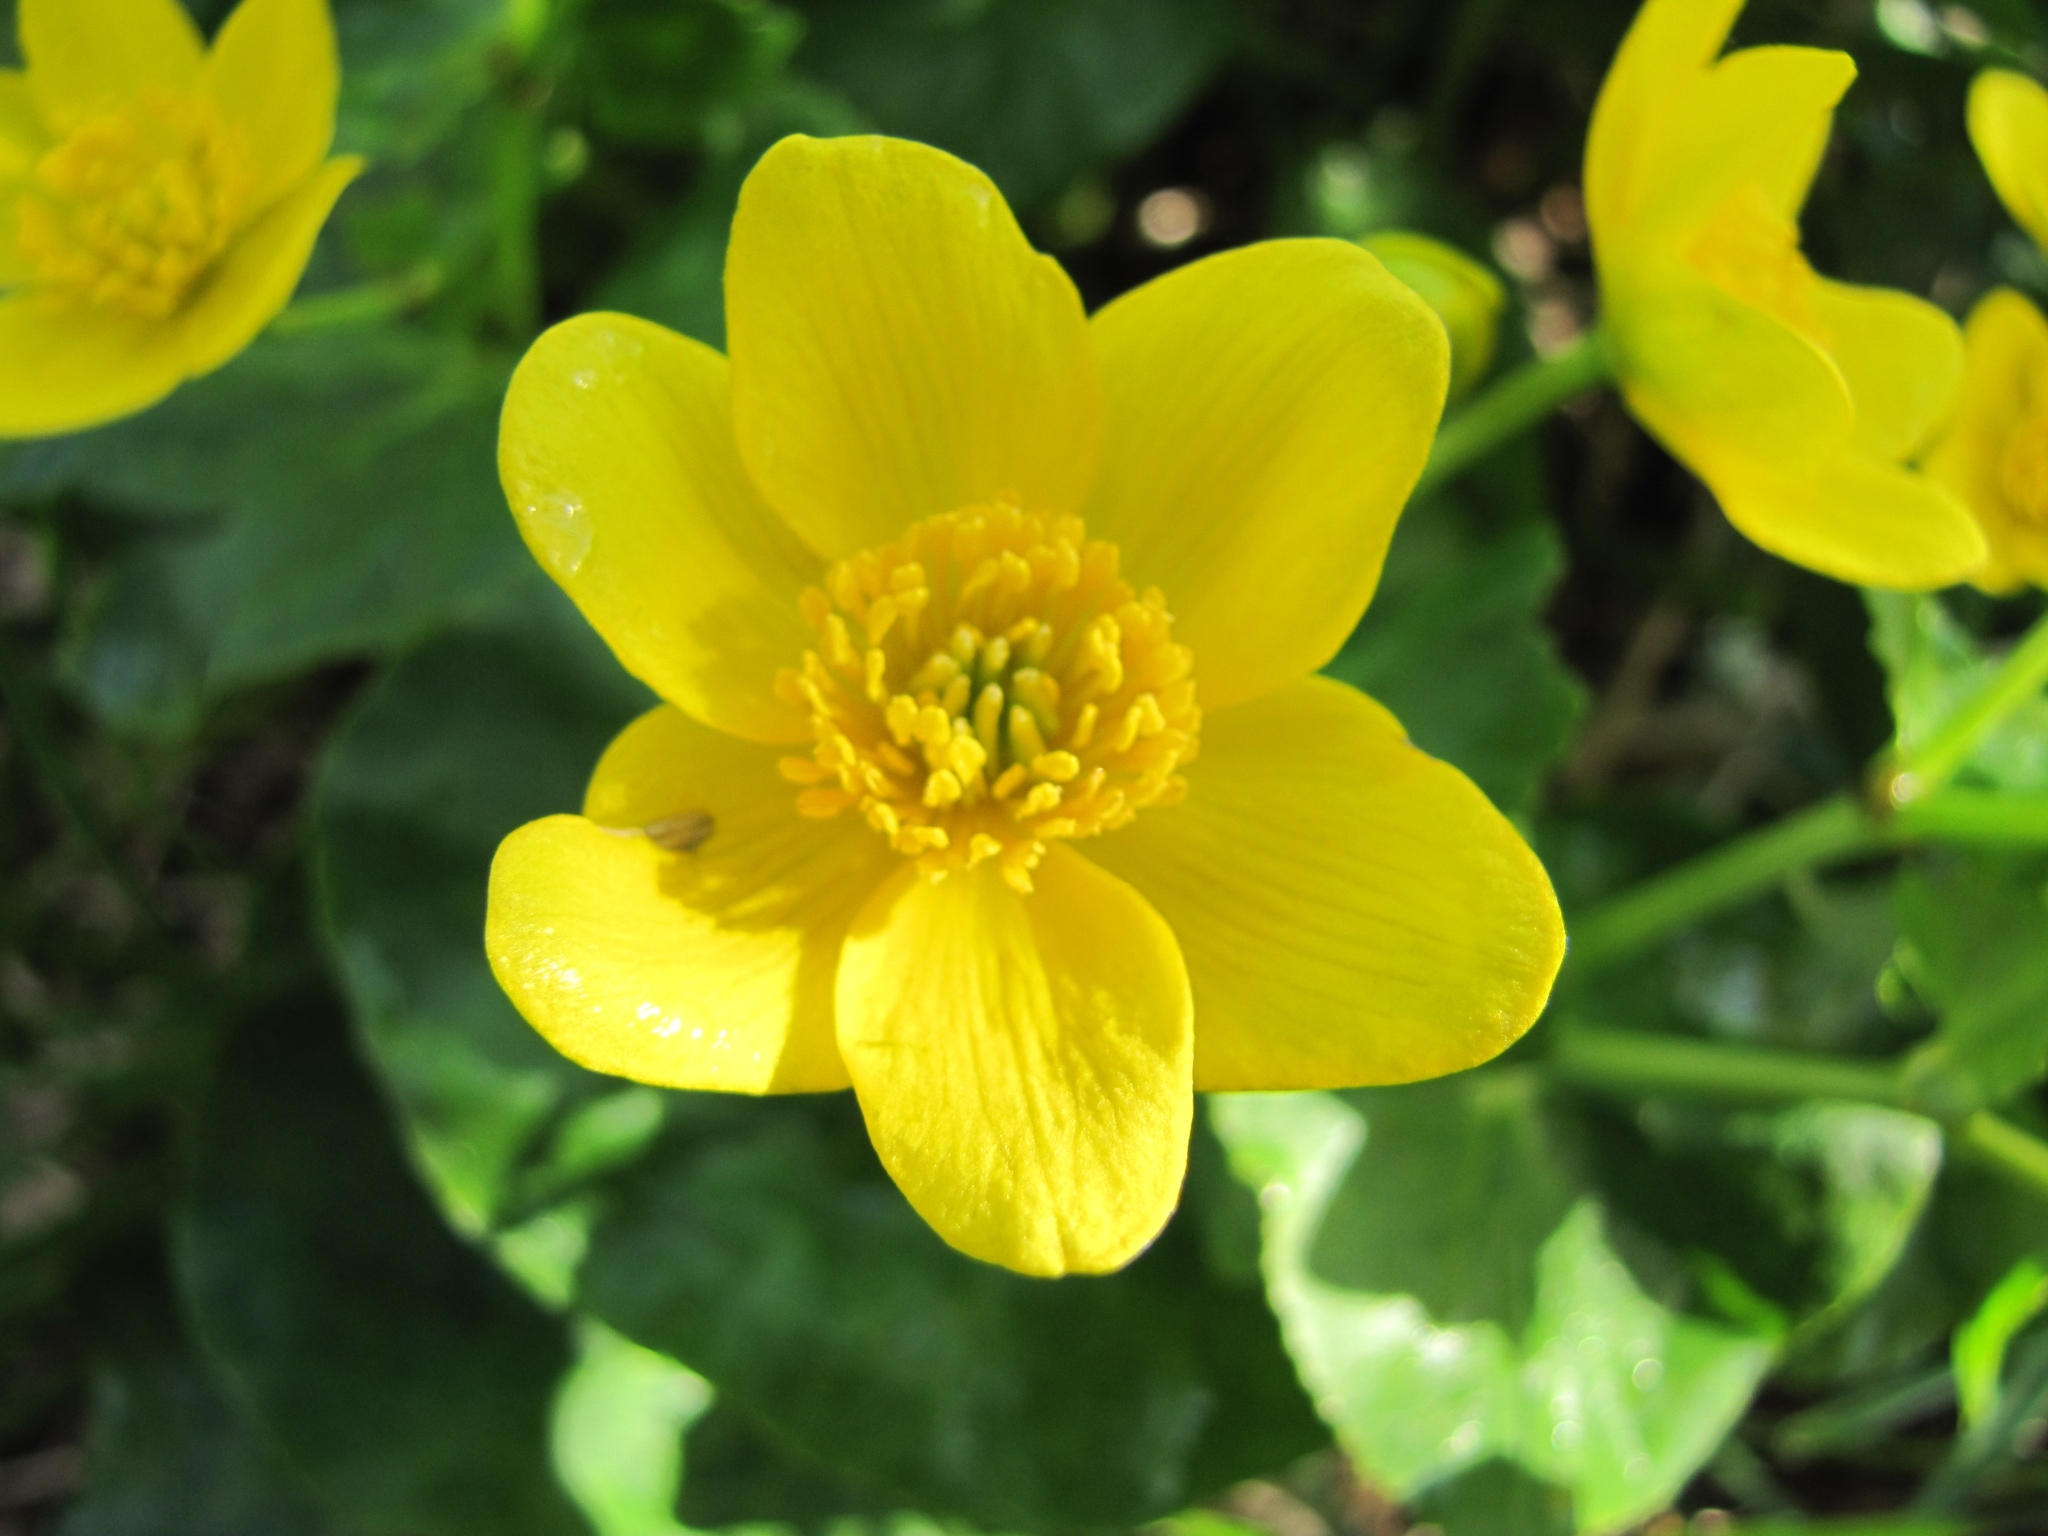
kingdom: Plantae
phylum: Tracheophyta
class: Magnoliopsida
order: Ranunculales
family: Ranunculaceae
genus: Caltha
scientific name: Caltha palustris
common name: Marsh marigold
